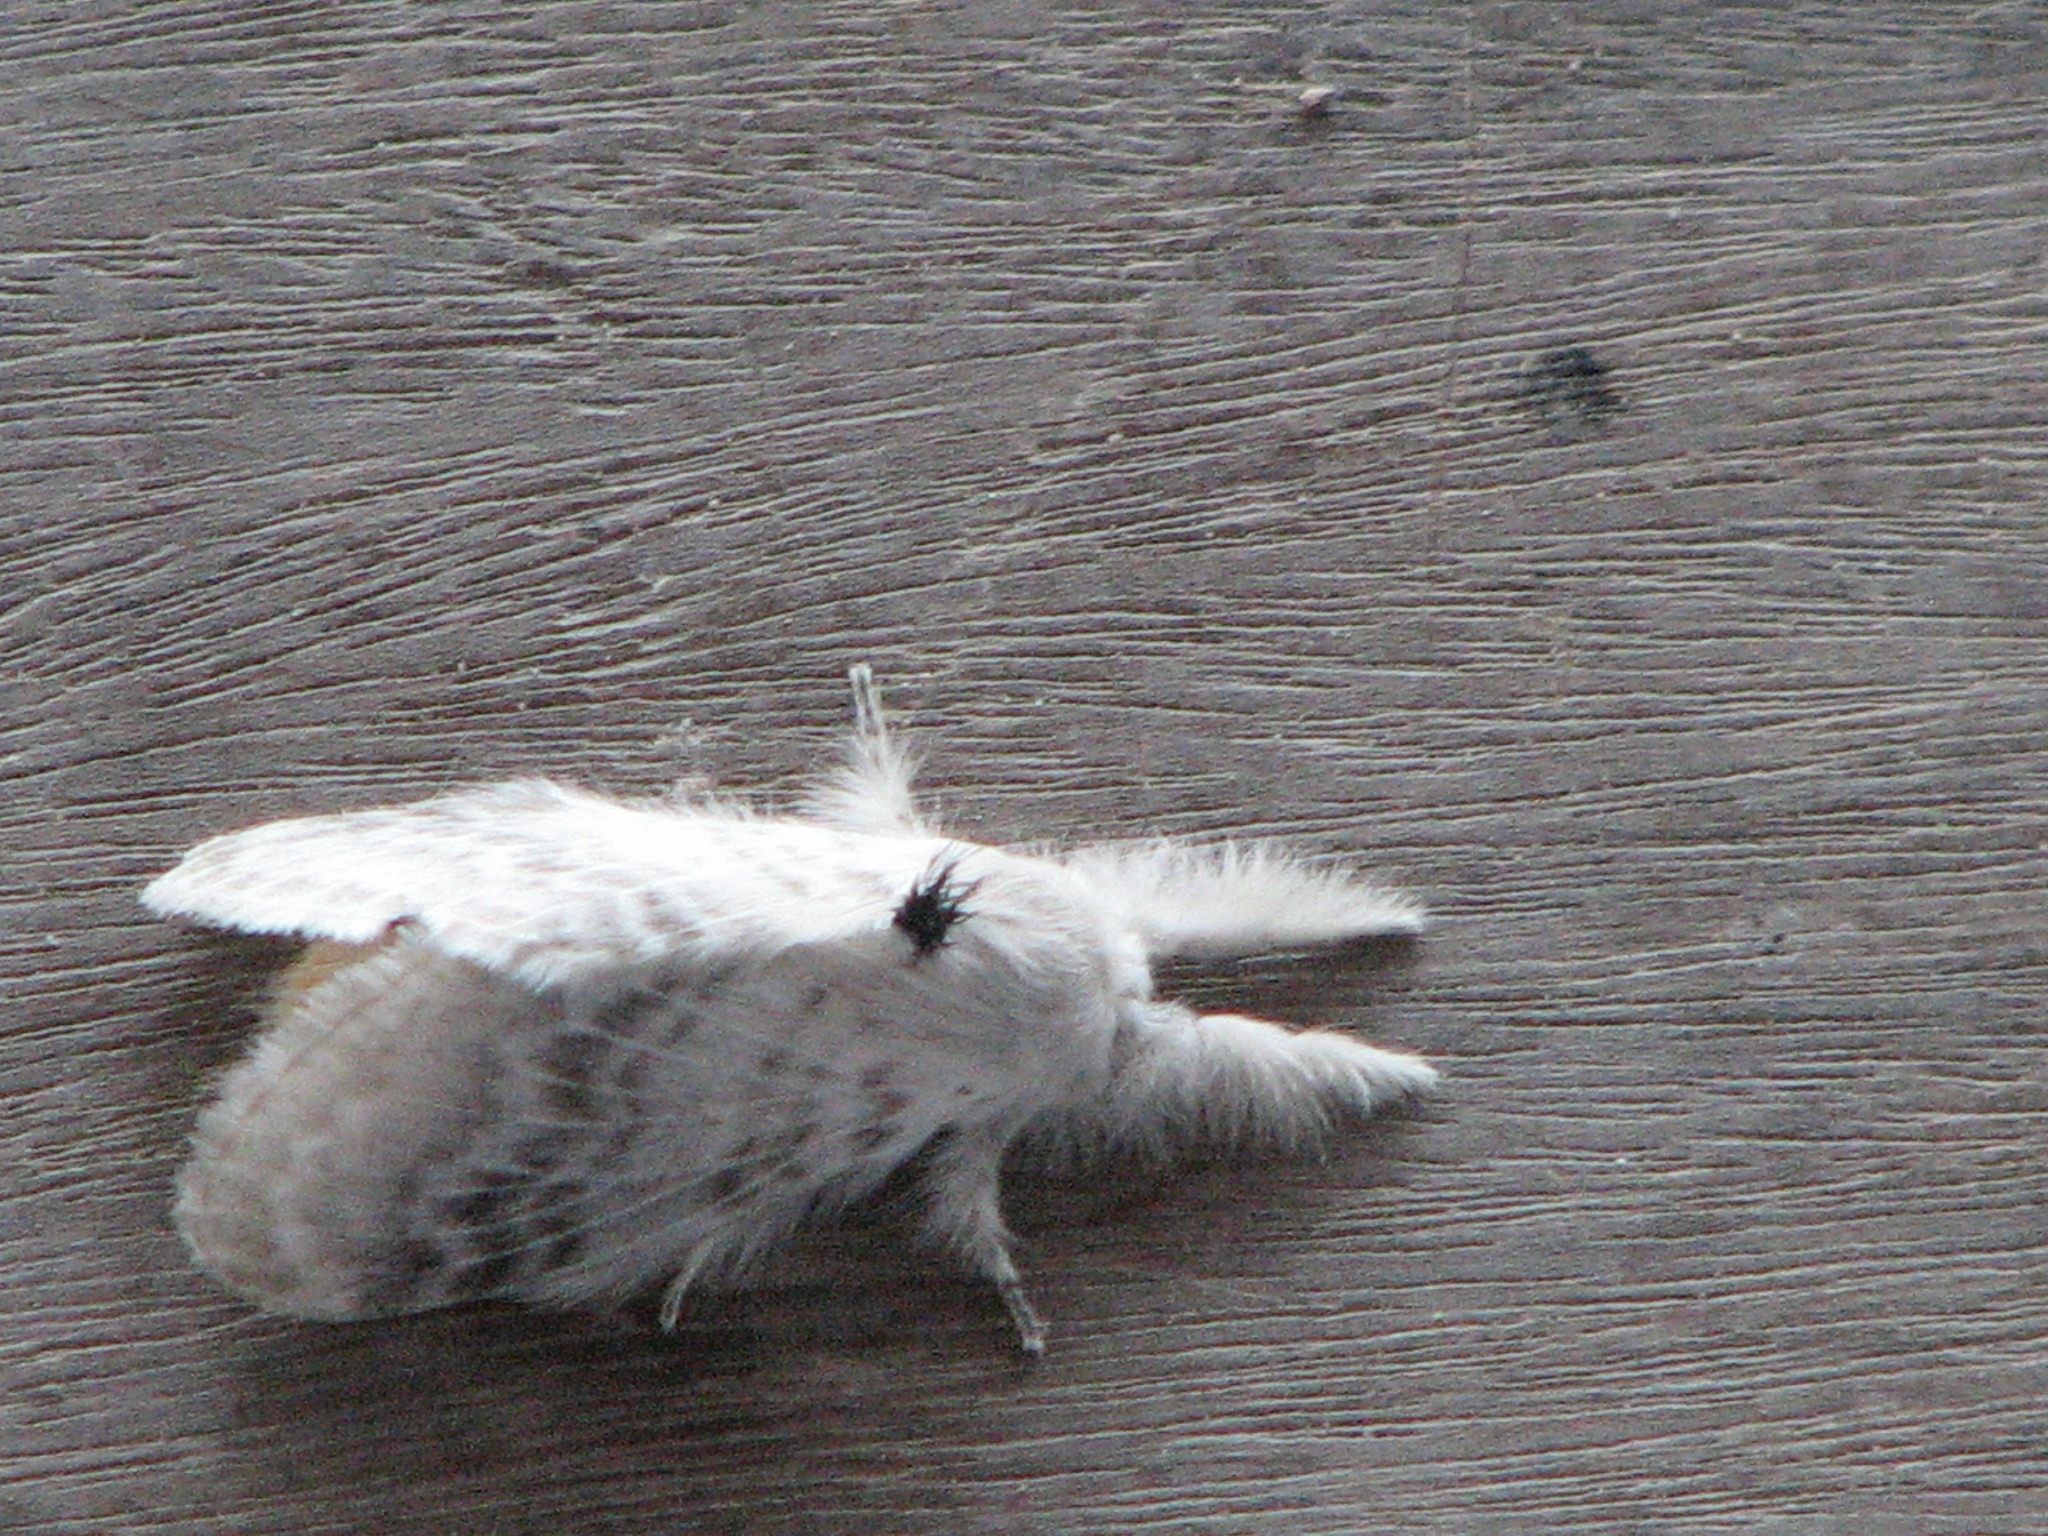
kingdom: Animalia
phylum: Arthropoda
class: Insecta
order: Lepidoptera
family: Lasiocampidae
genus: Apotolype
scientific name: Apotolype blanchardi
